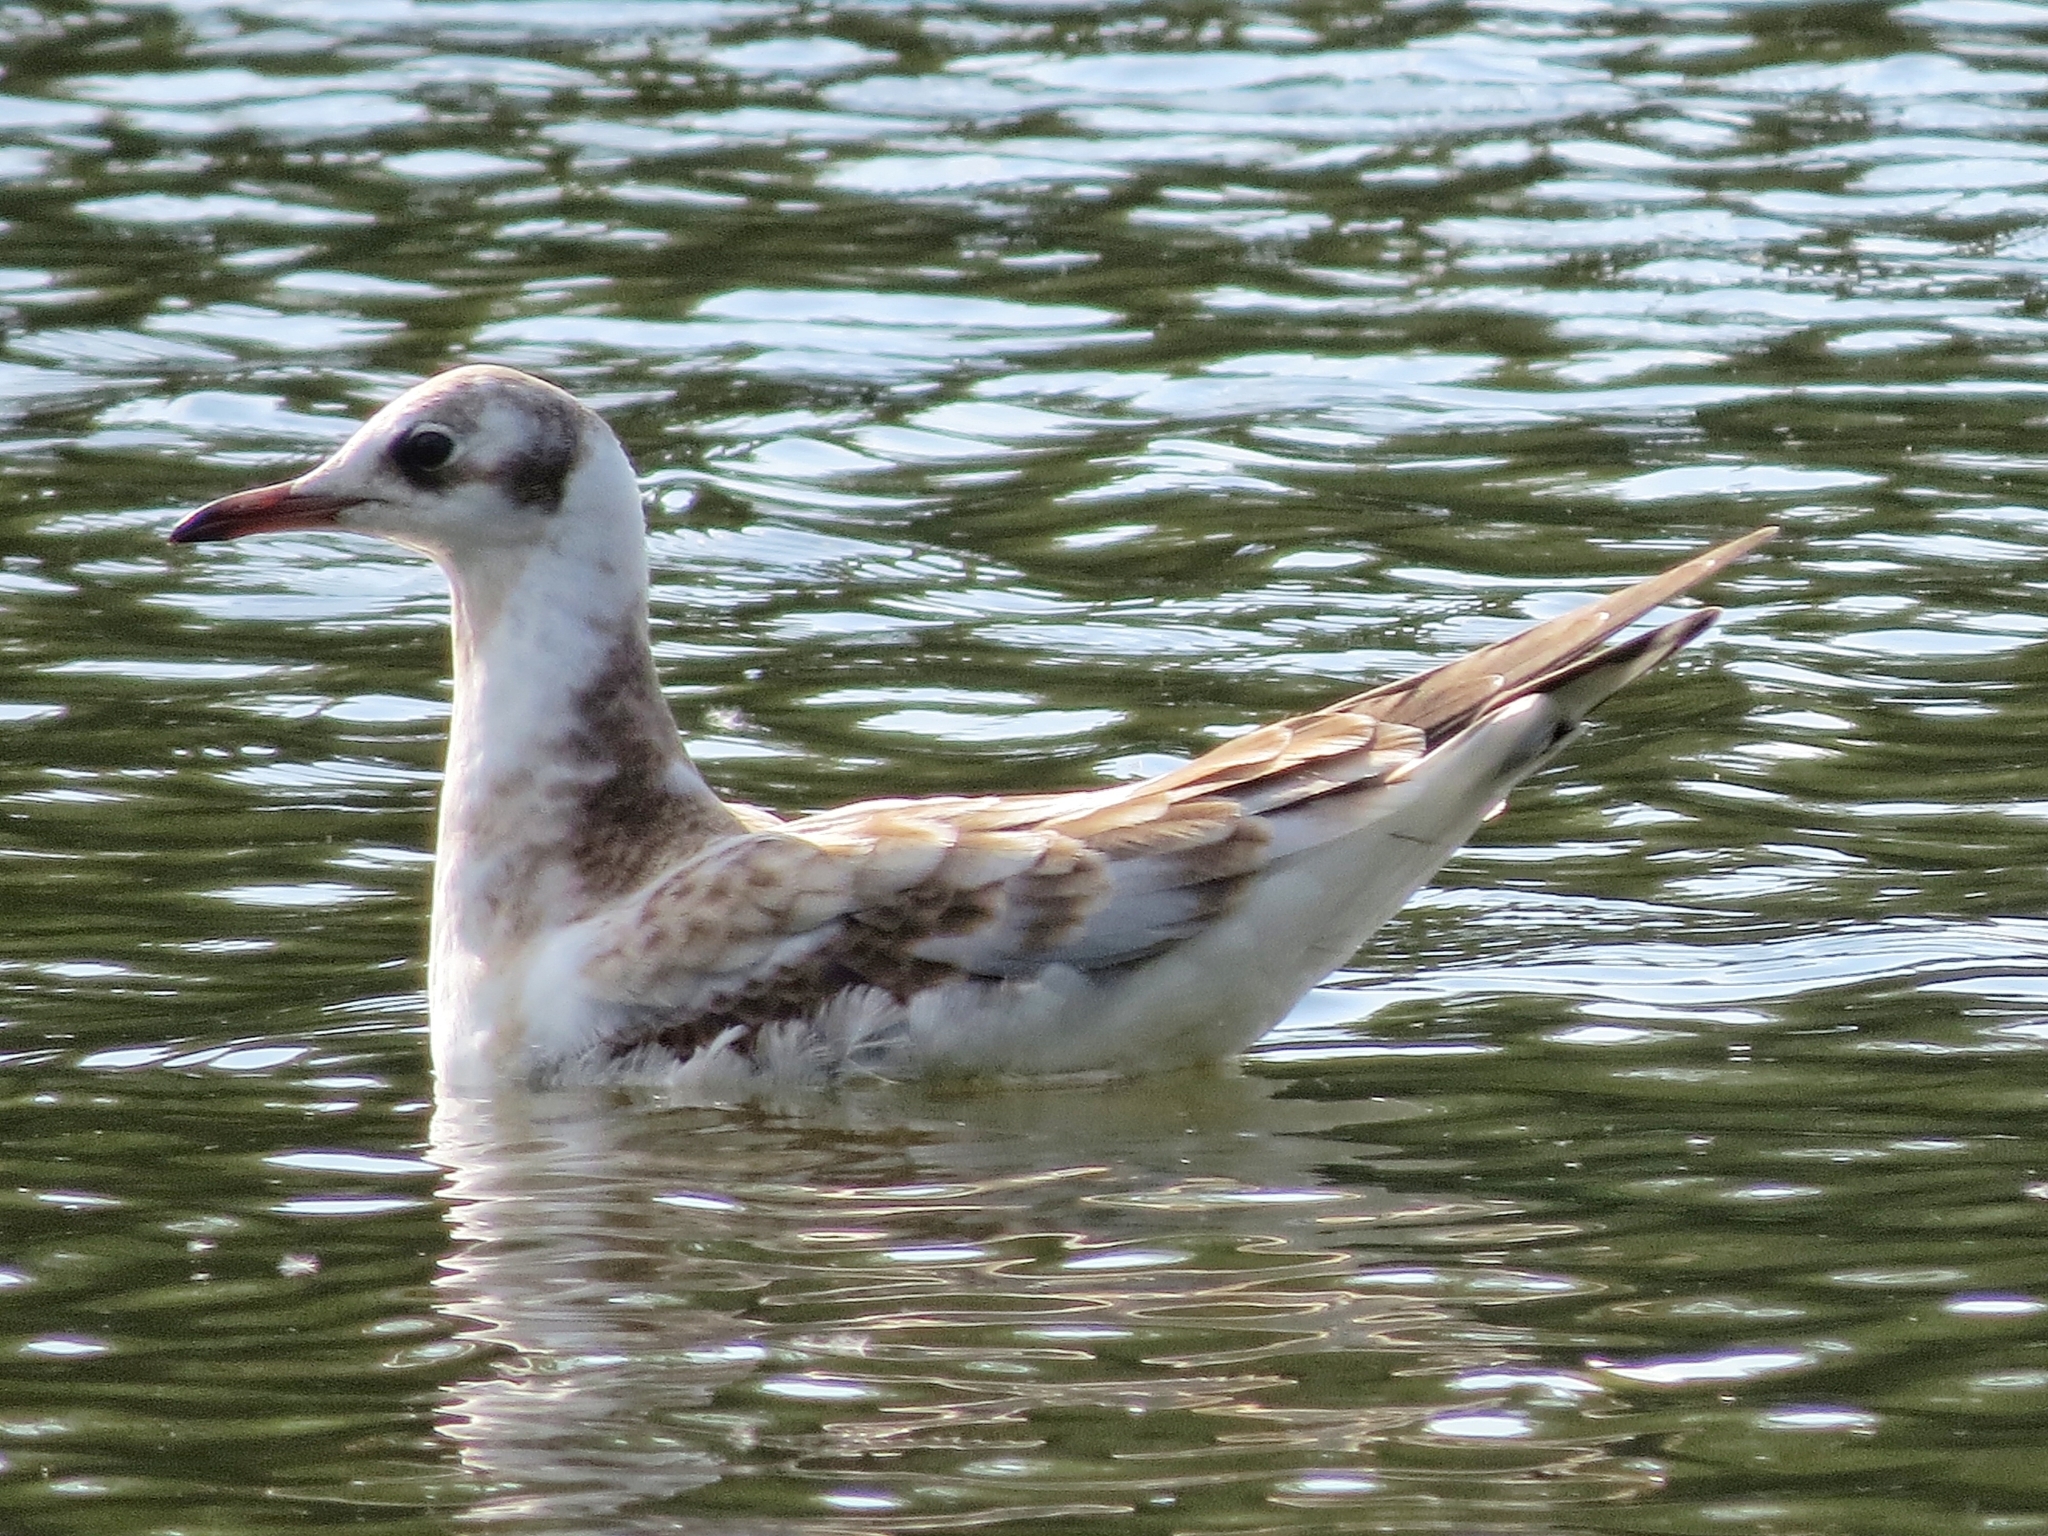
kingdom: Animalia
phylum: Chordata
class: Aves
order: Charadriiformes
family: Laridae
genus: Chroicocephalus
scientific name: Chroicocephalus ridibundus
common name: Black-headed gull
